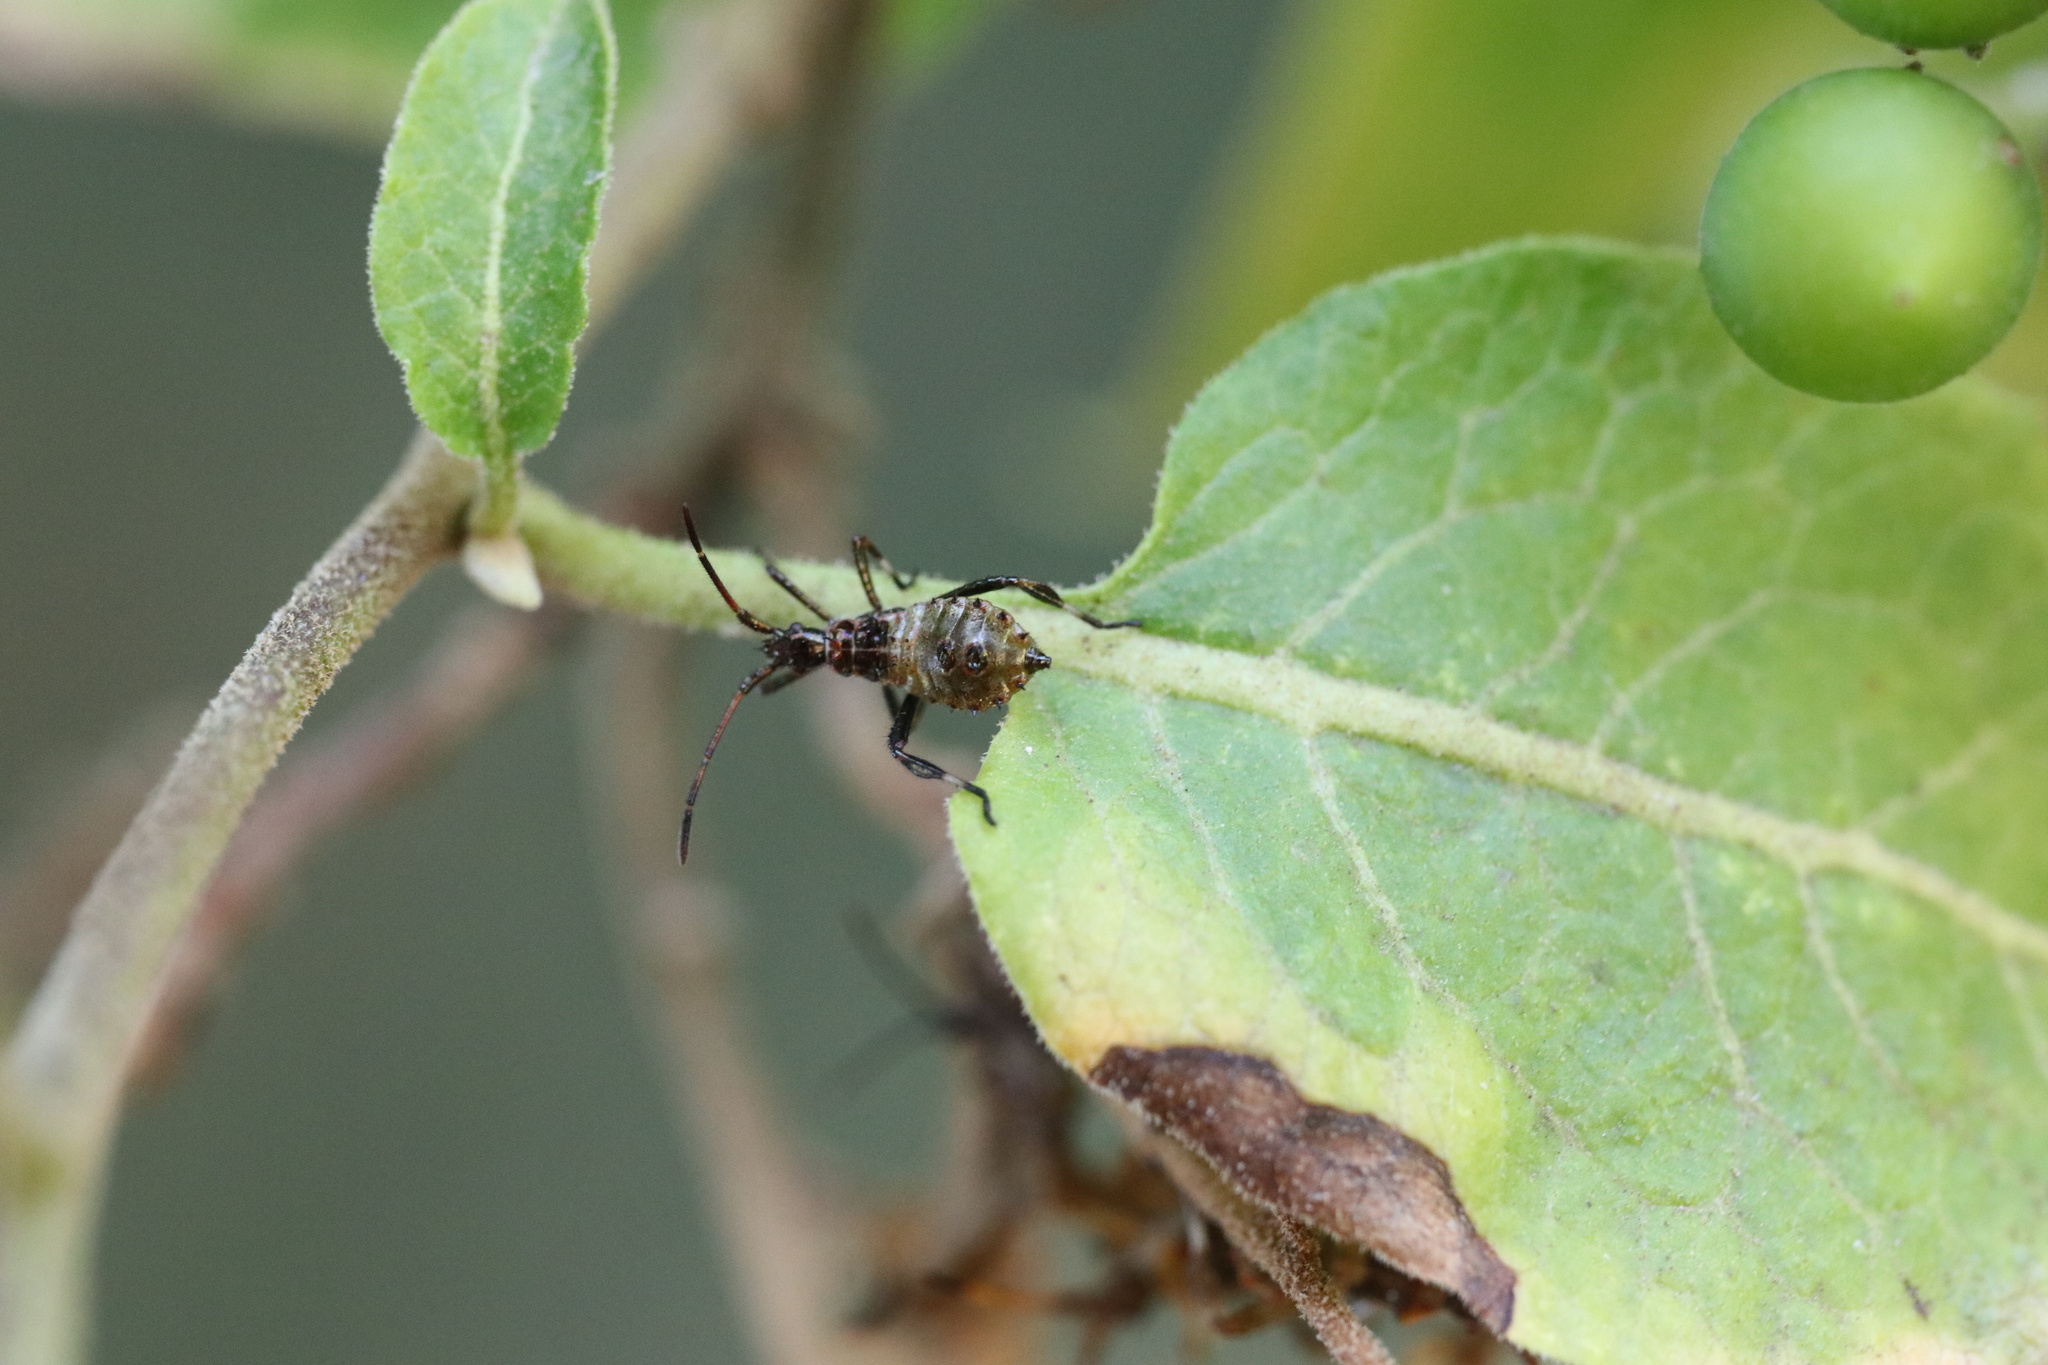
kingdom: Animalia
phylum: Arthropoda
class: Insecta
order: Hemiptera
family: Coreidae
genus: Leptoglossus
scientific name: Leptoglossus chilensis
